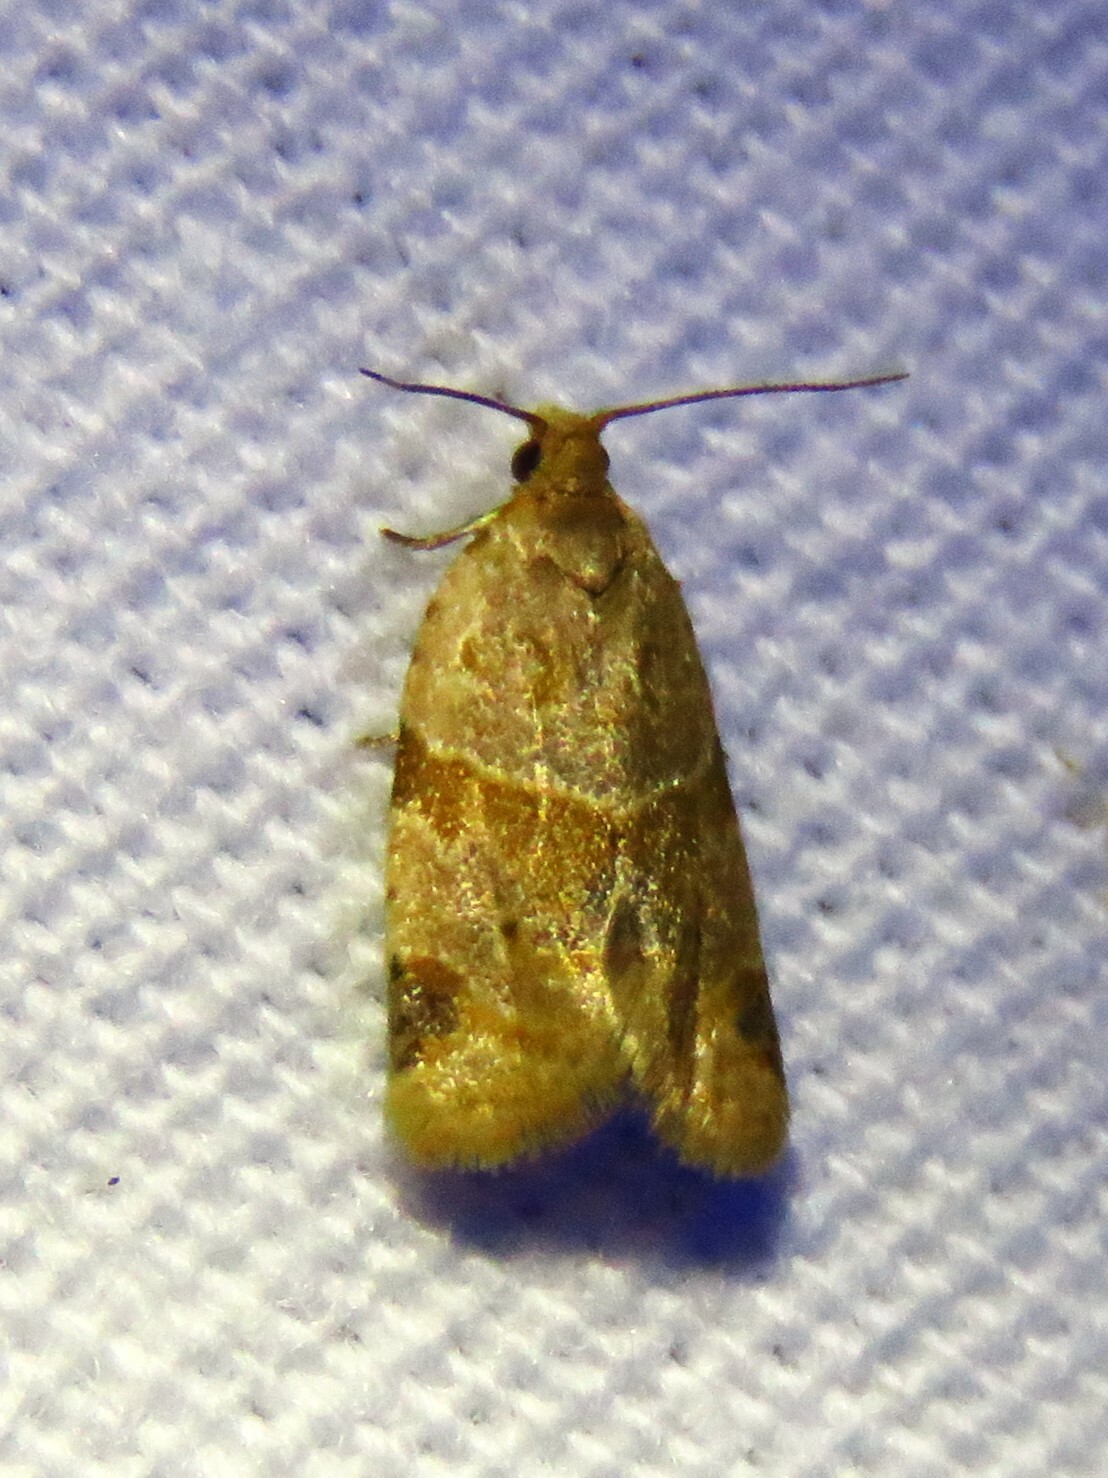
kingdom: Animalia
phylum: Arthropoda
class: Insecta
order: Lepidoptera
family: Tortricidae
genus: Clepsis
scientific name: Clepsis peritana
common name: Garden tortrix
